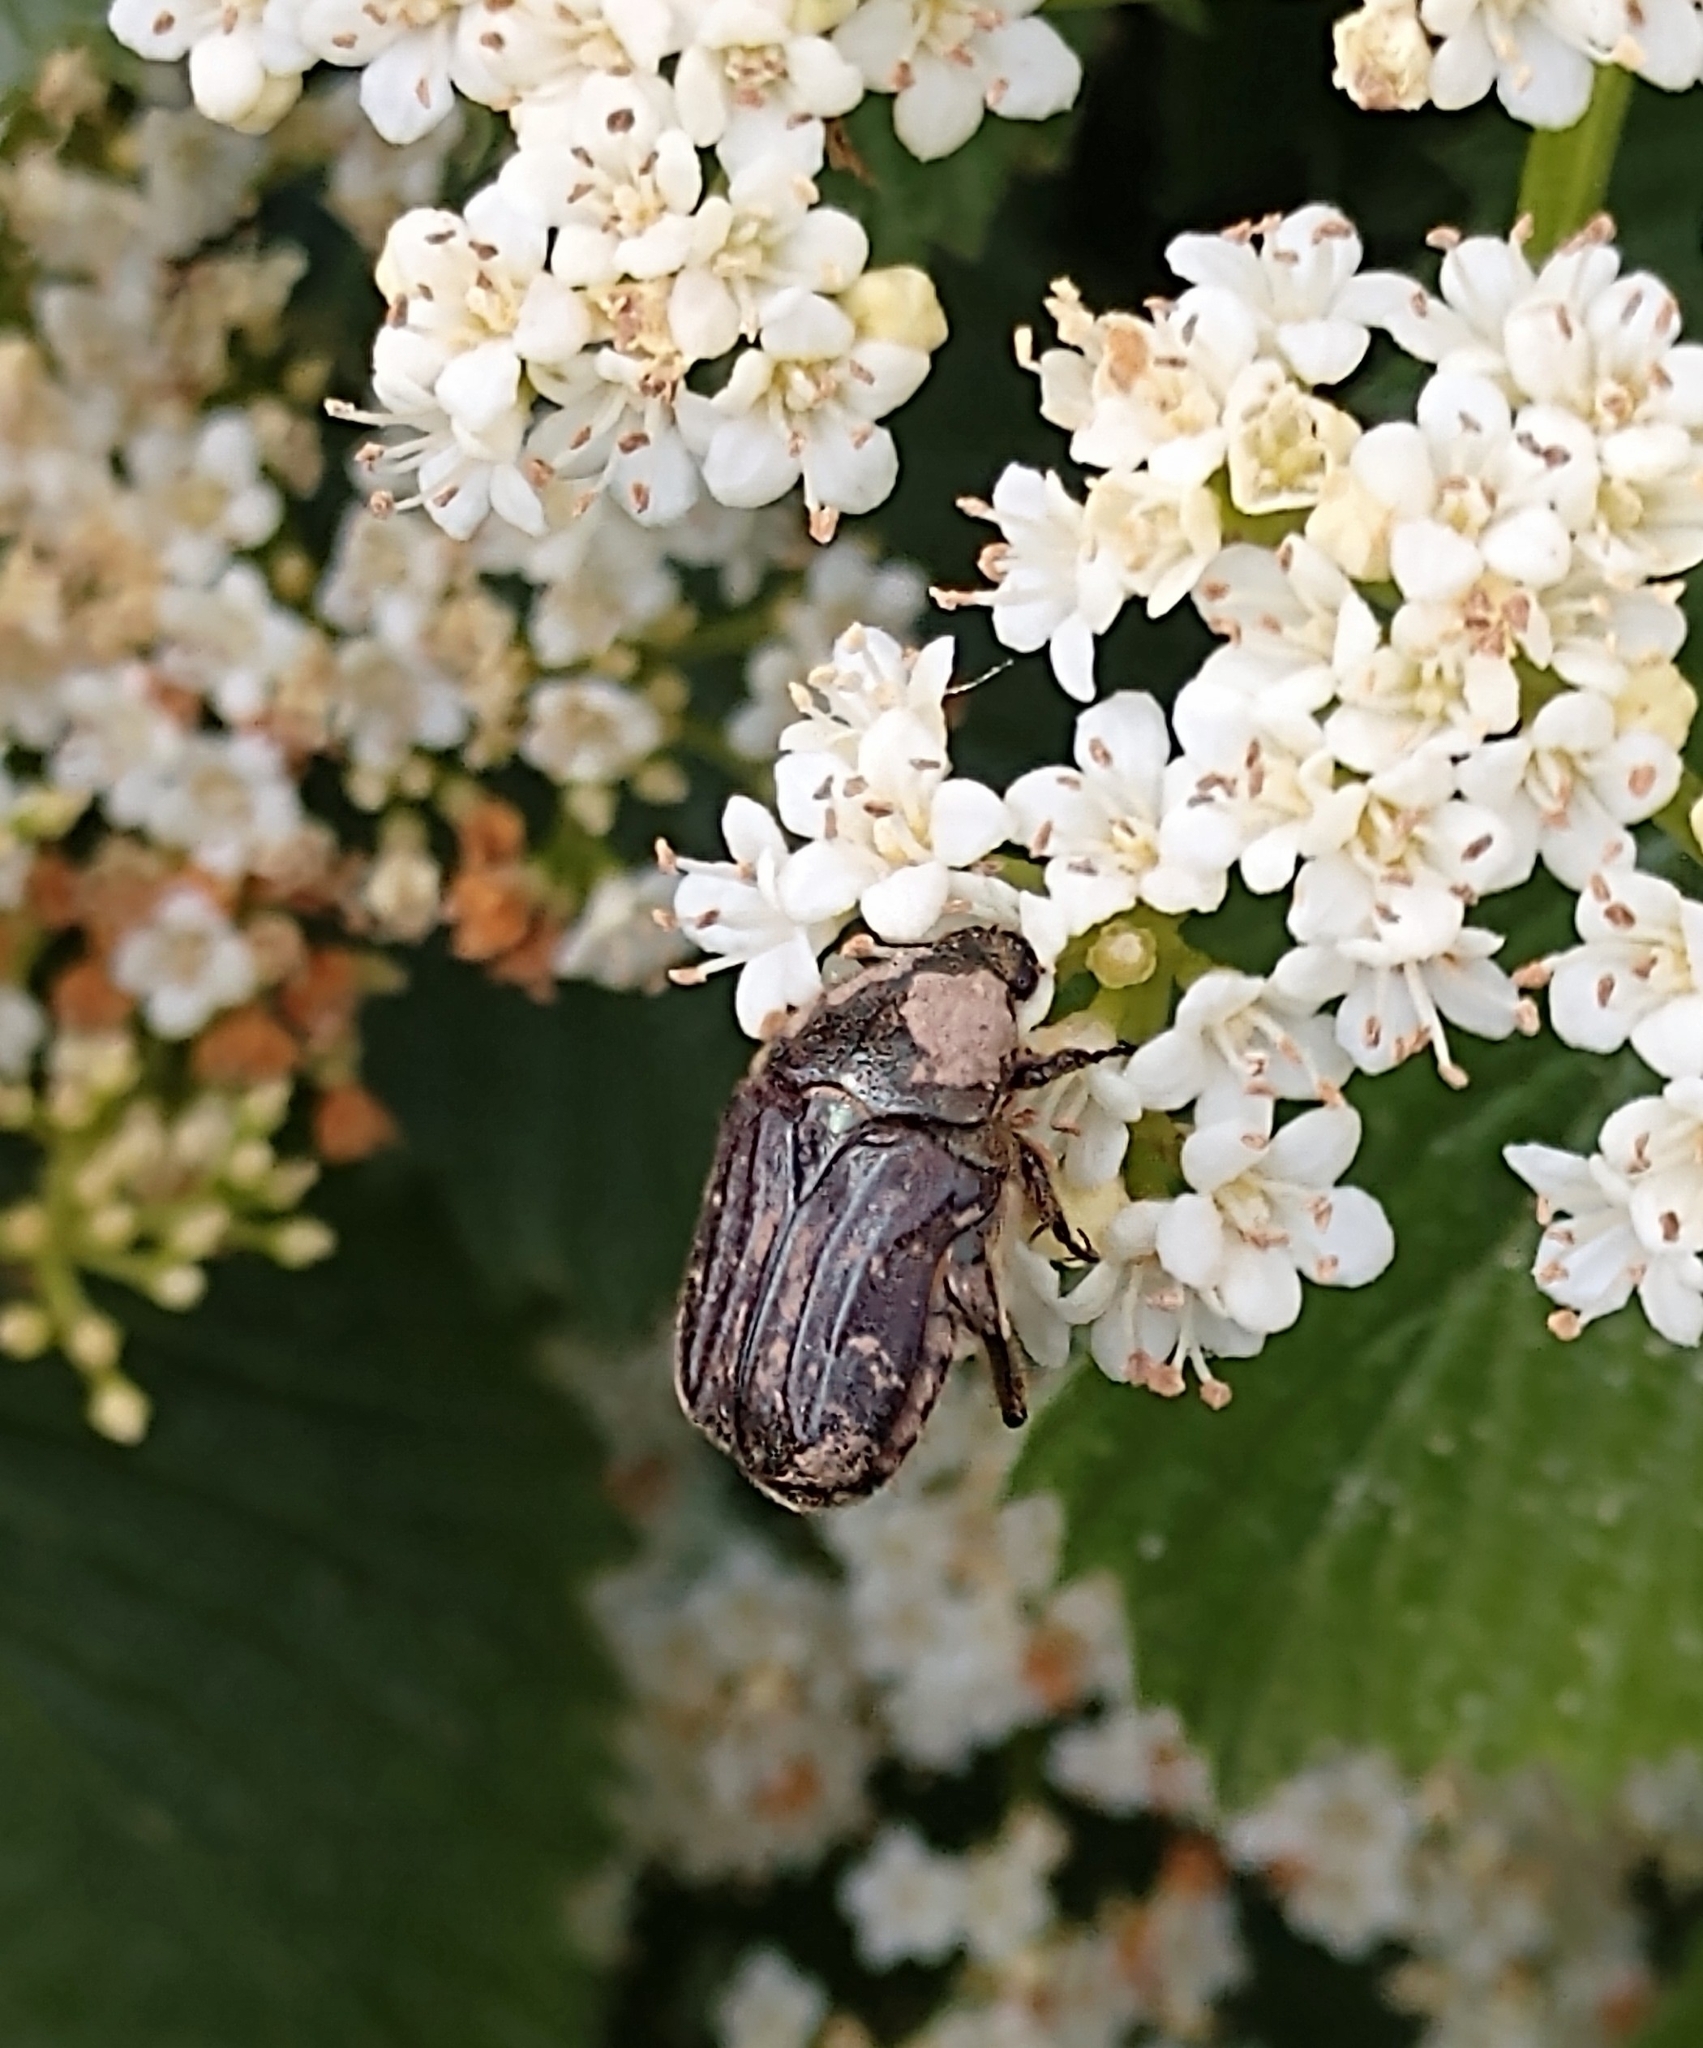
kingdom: Animalia
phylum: Arthropoda
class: Insecta
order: Coleoptera
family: Scarabaeidae
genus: Euphoria
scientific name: Euphoria sepulcralis
